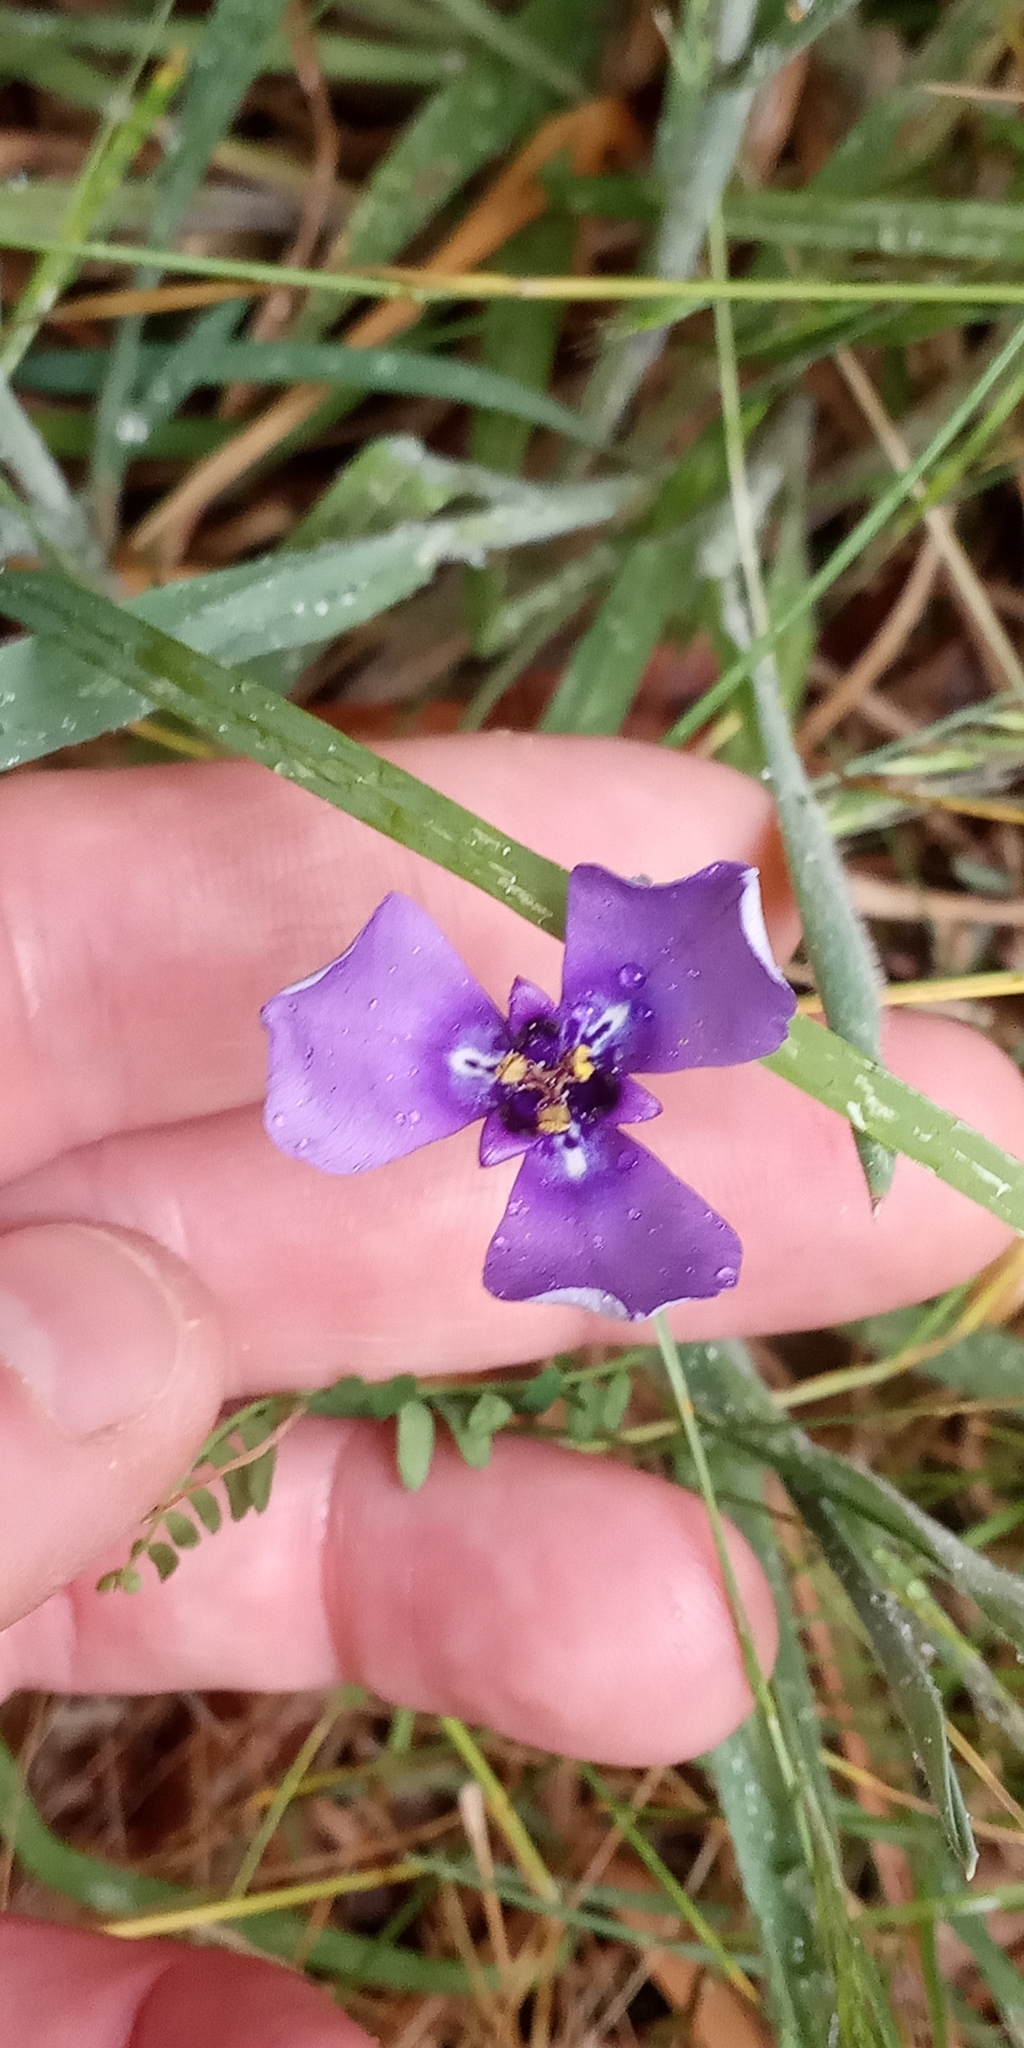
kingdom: Plantae
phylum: Tracheophyta
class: Liliopsida
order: Asparagales
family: Iridaceae
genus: Herbertia
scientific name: Herbertia lahue
